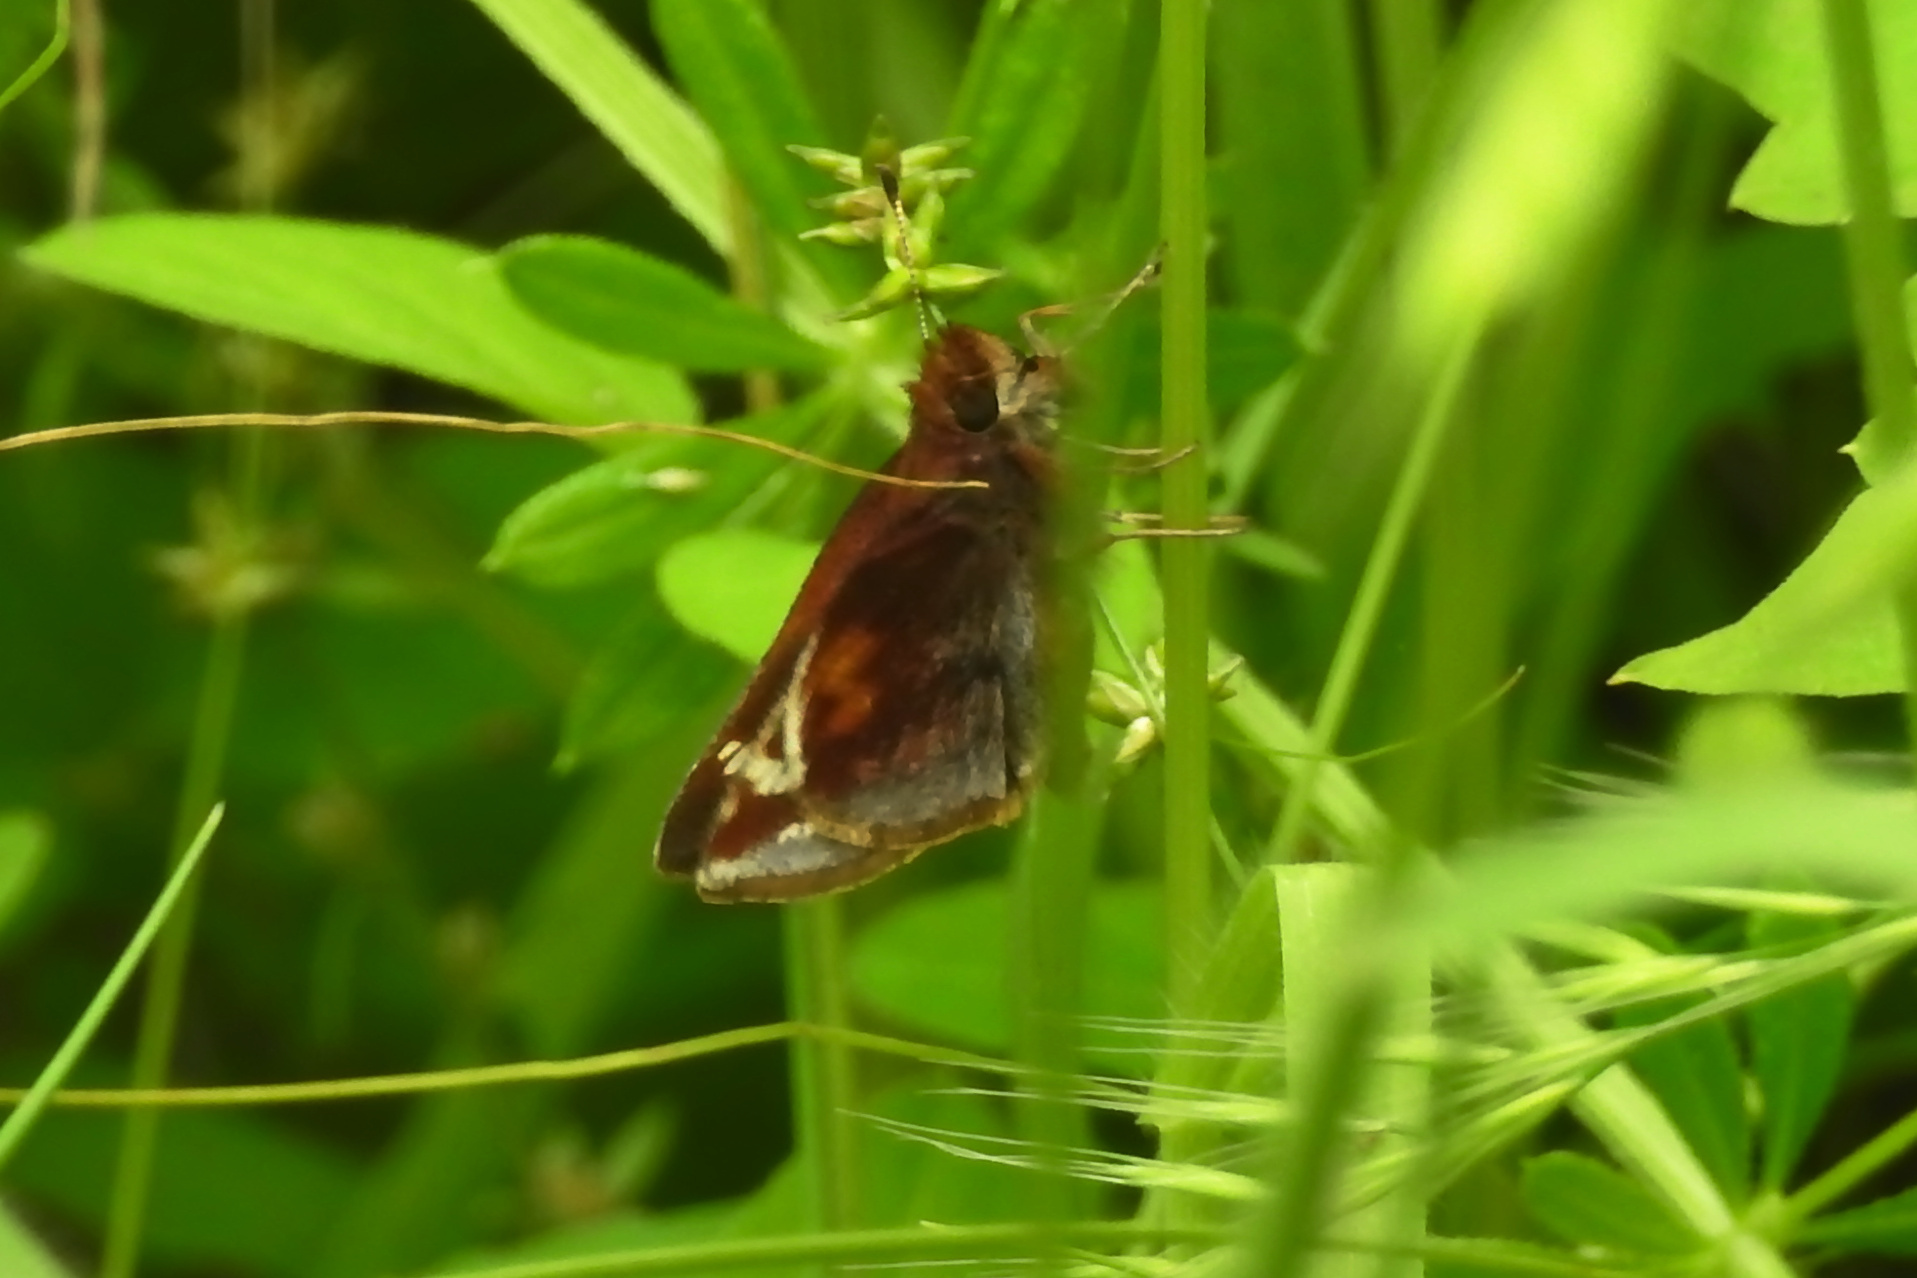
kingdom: Animalia
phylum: Arthropoda
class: Insecta
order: Lepidoptera
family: Hesperiidae
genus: Lon
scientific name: Lon zabulon
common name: Zabulon skipper
